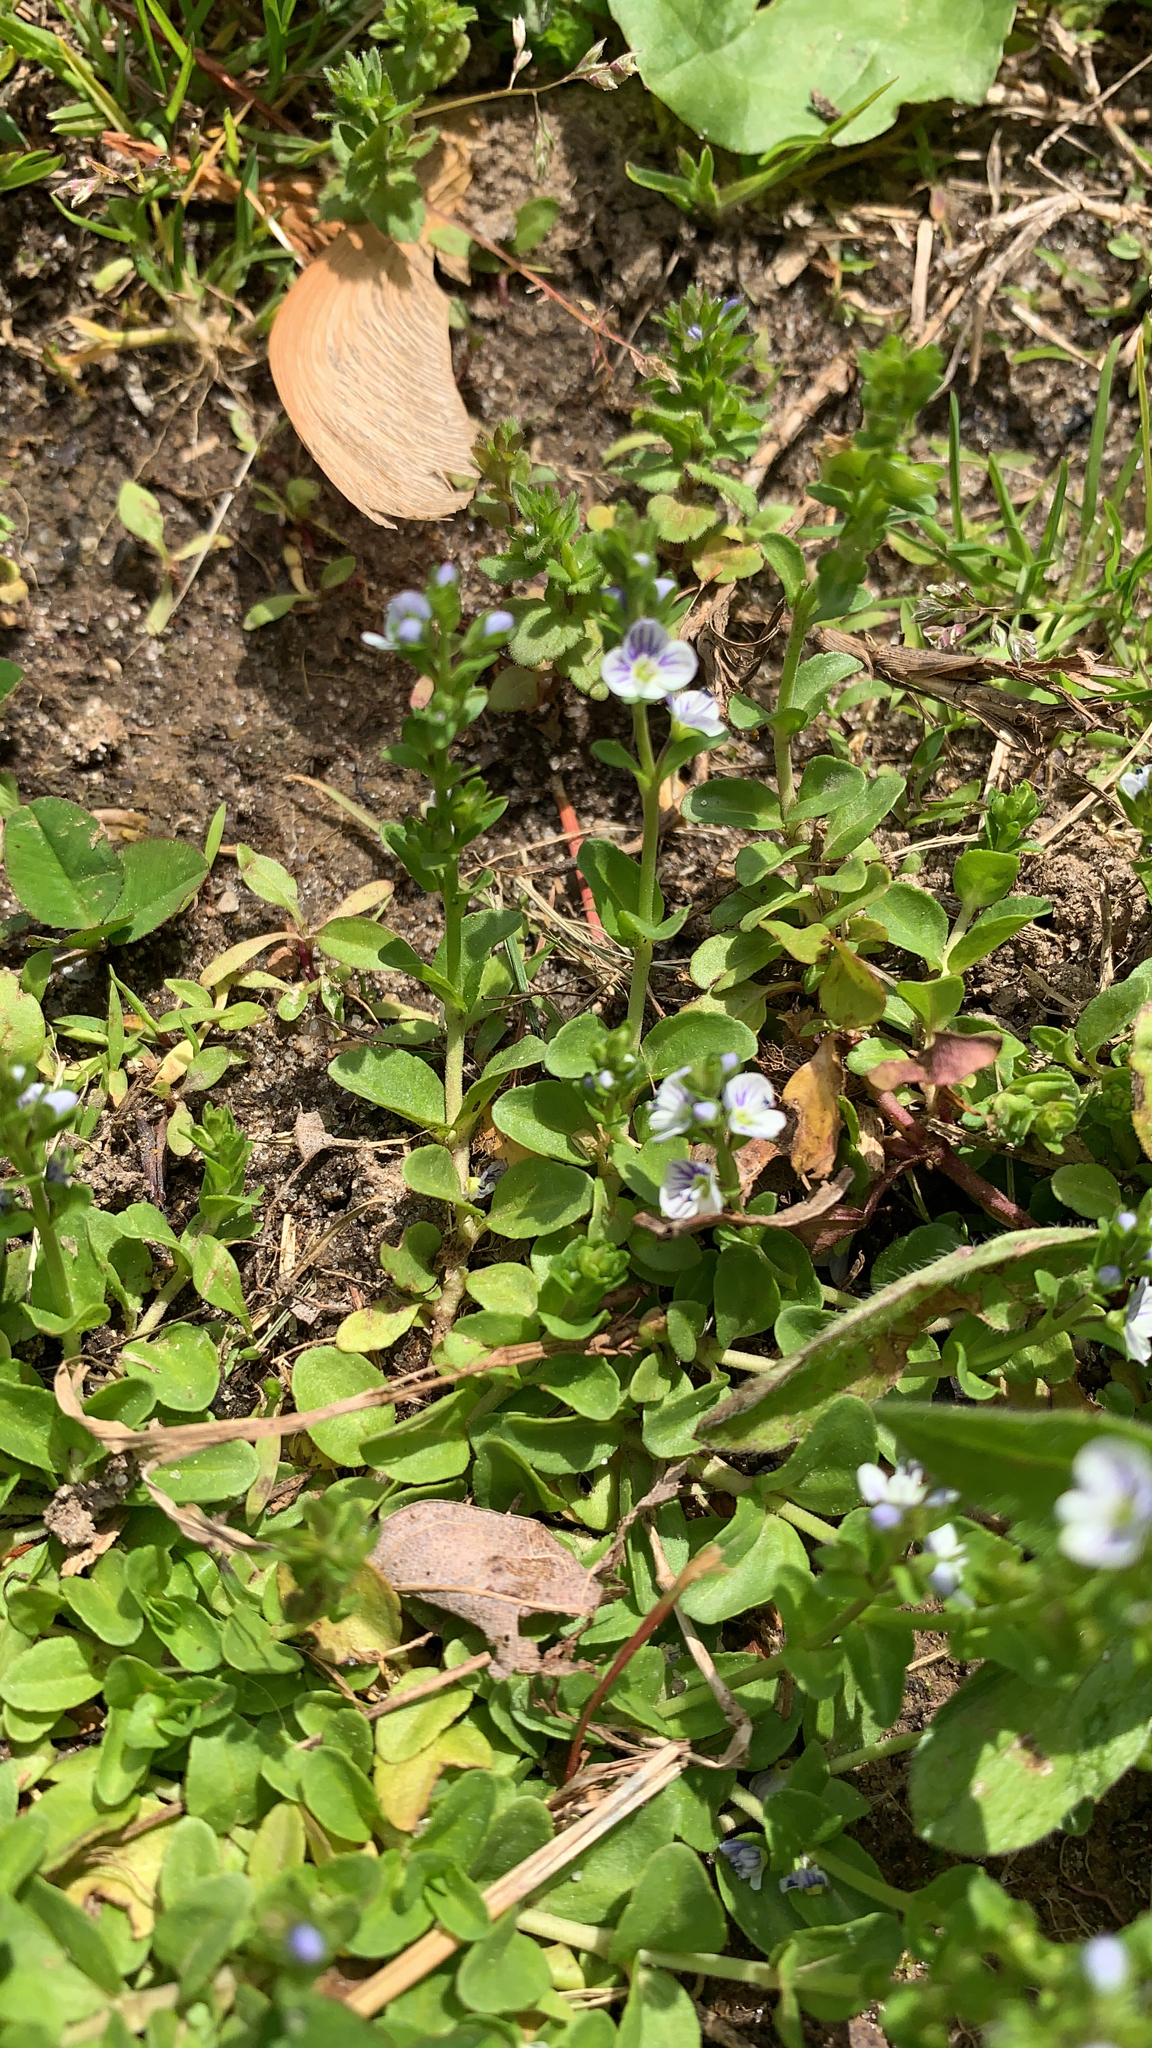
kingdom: Plantae
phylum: Tracheophyta
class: Magnoliopsida
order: Lamiales
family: Plantaginaceae
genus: Veronica
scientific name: Veronica serpyllifolia
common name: Thyme-leaved speedwell
